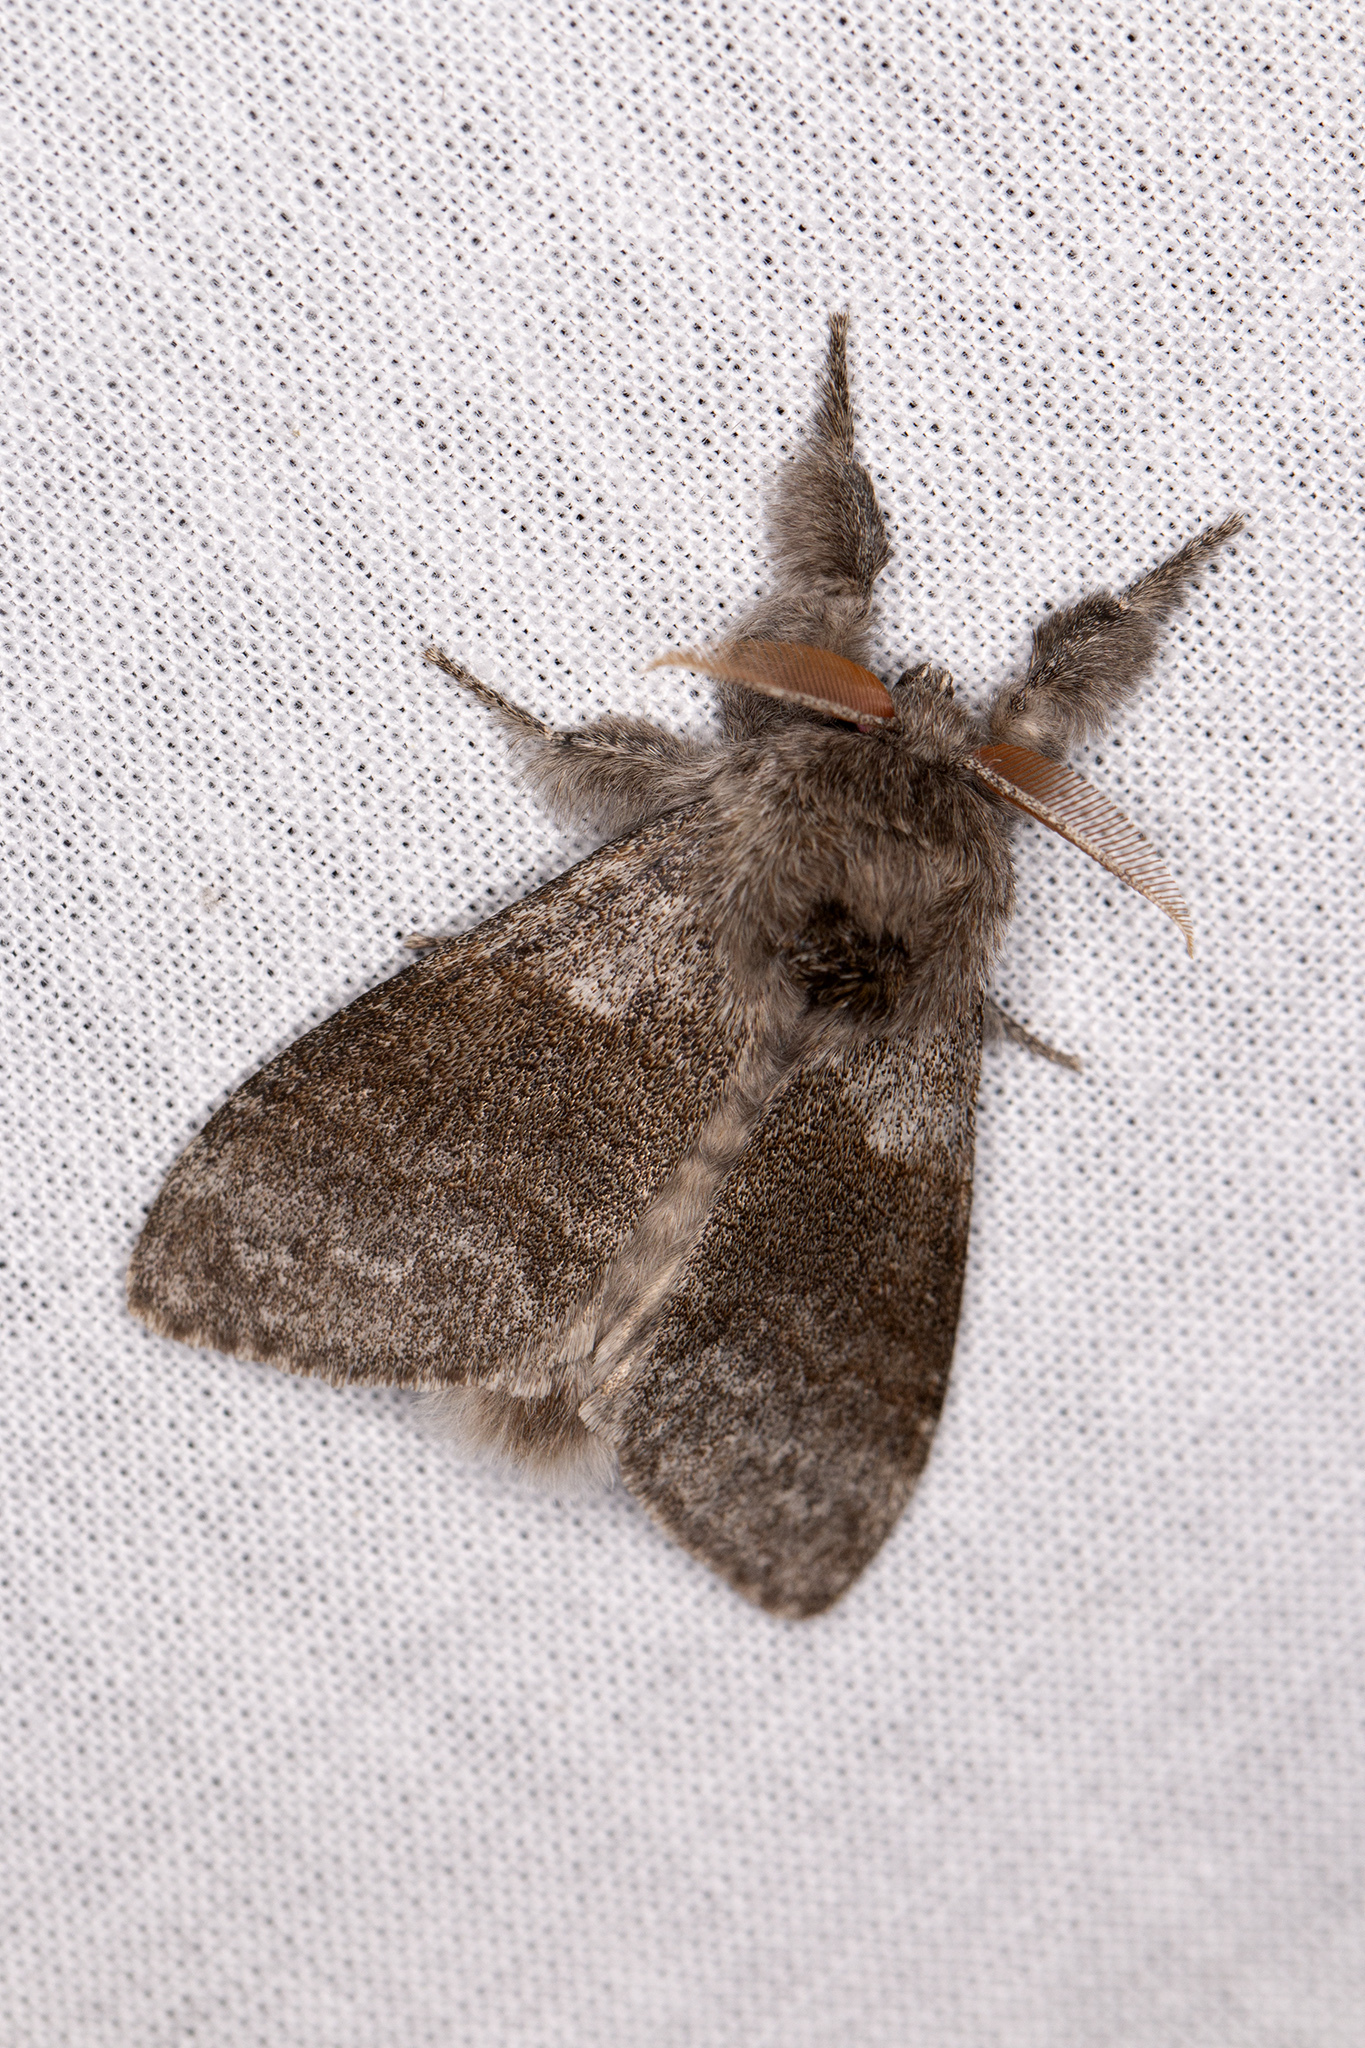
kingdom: Animalia
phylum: Arthropoda
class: Insecta
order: Lepidoptera
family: Erebidae
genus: Calliteara
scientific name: Calliteara pudibunda
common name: Pale tussock
